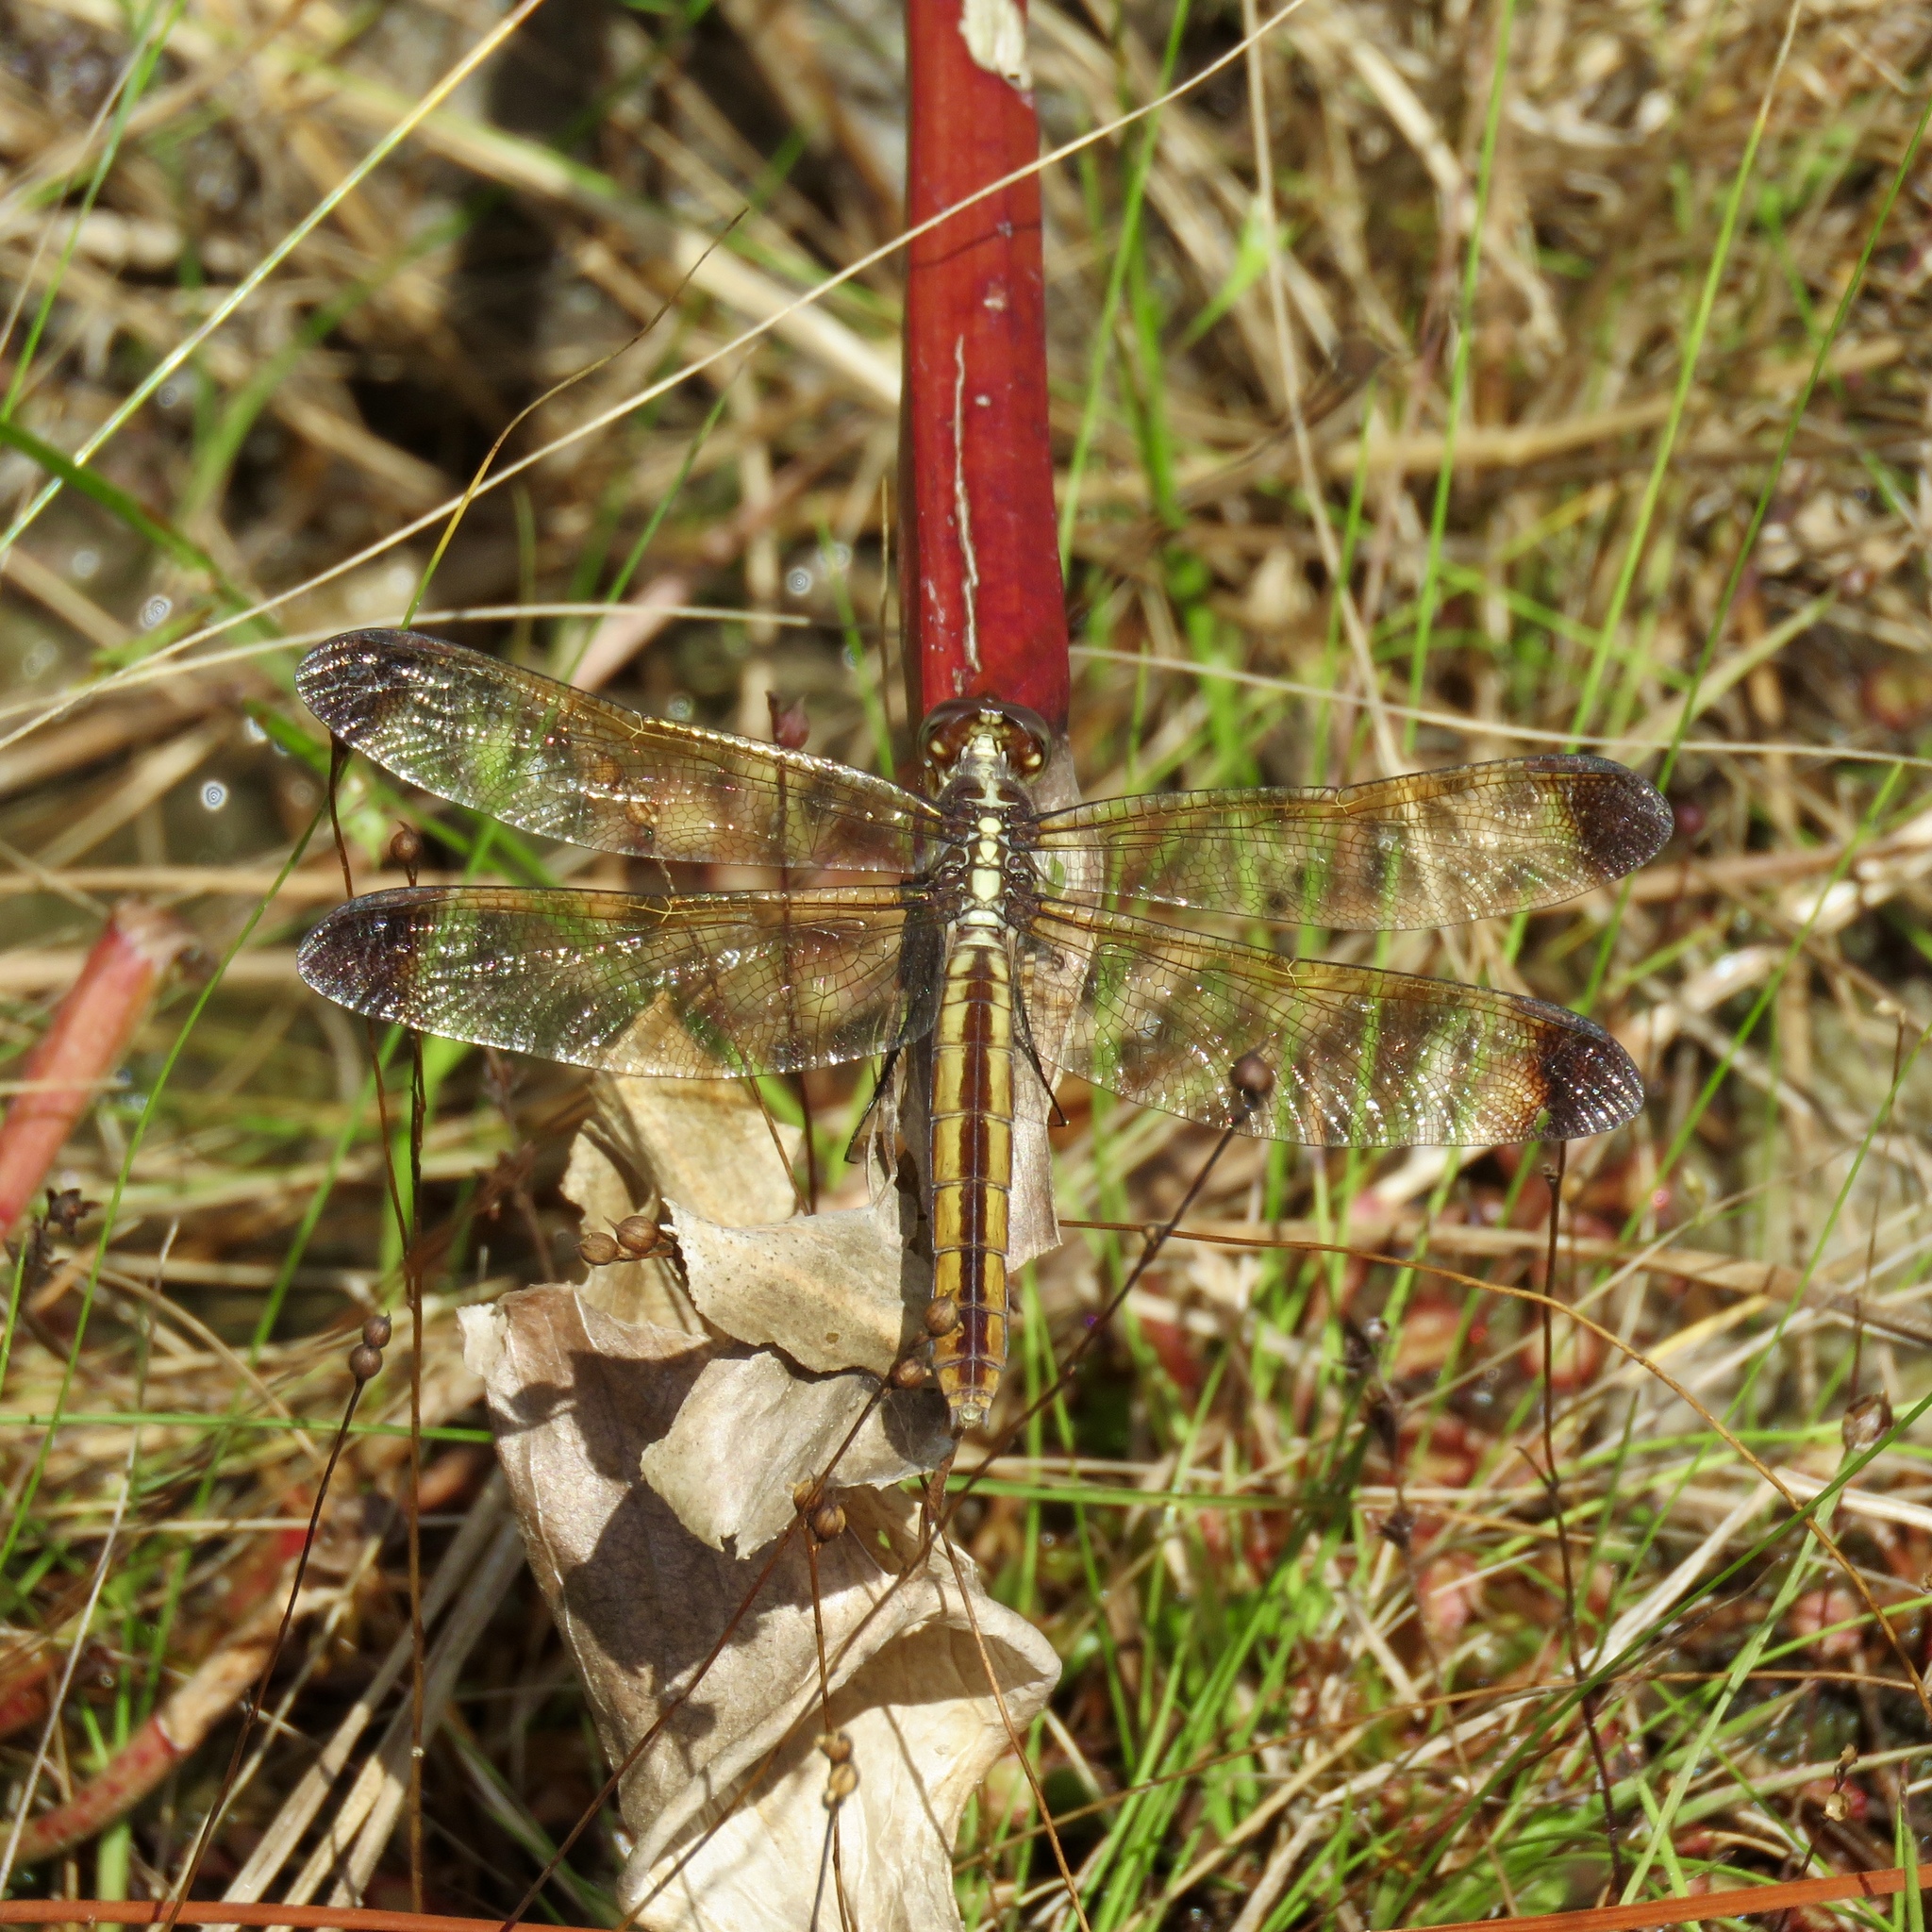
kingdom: Animalia
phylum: Arthropoda
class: Insecta
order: Odonata
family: Libellulidae
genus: Libellula
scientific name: Libellula flavida
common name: Yellow-sided skimmer
